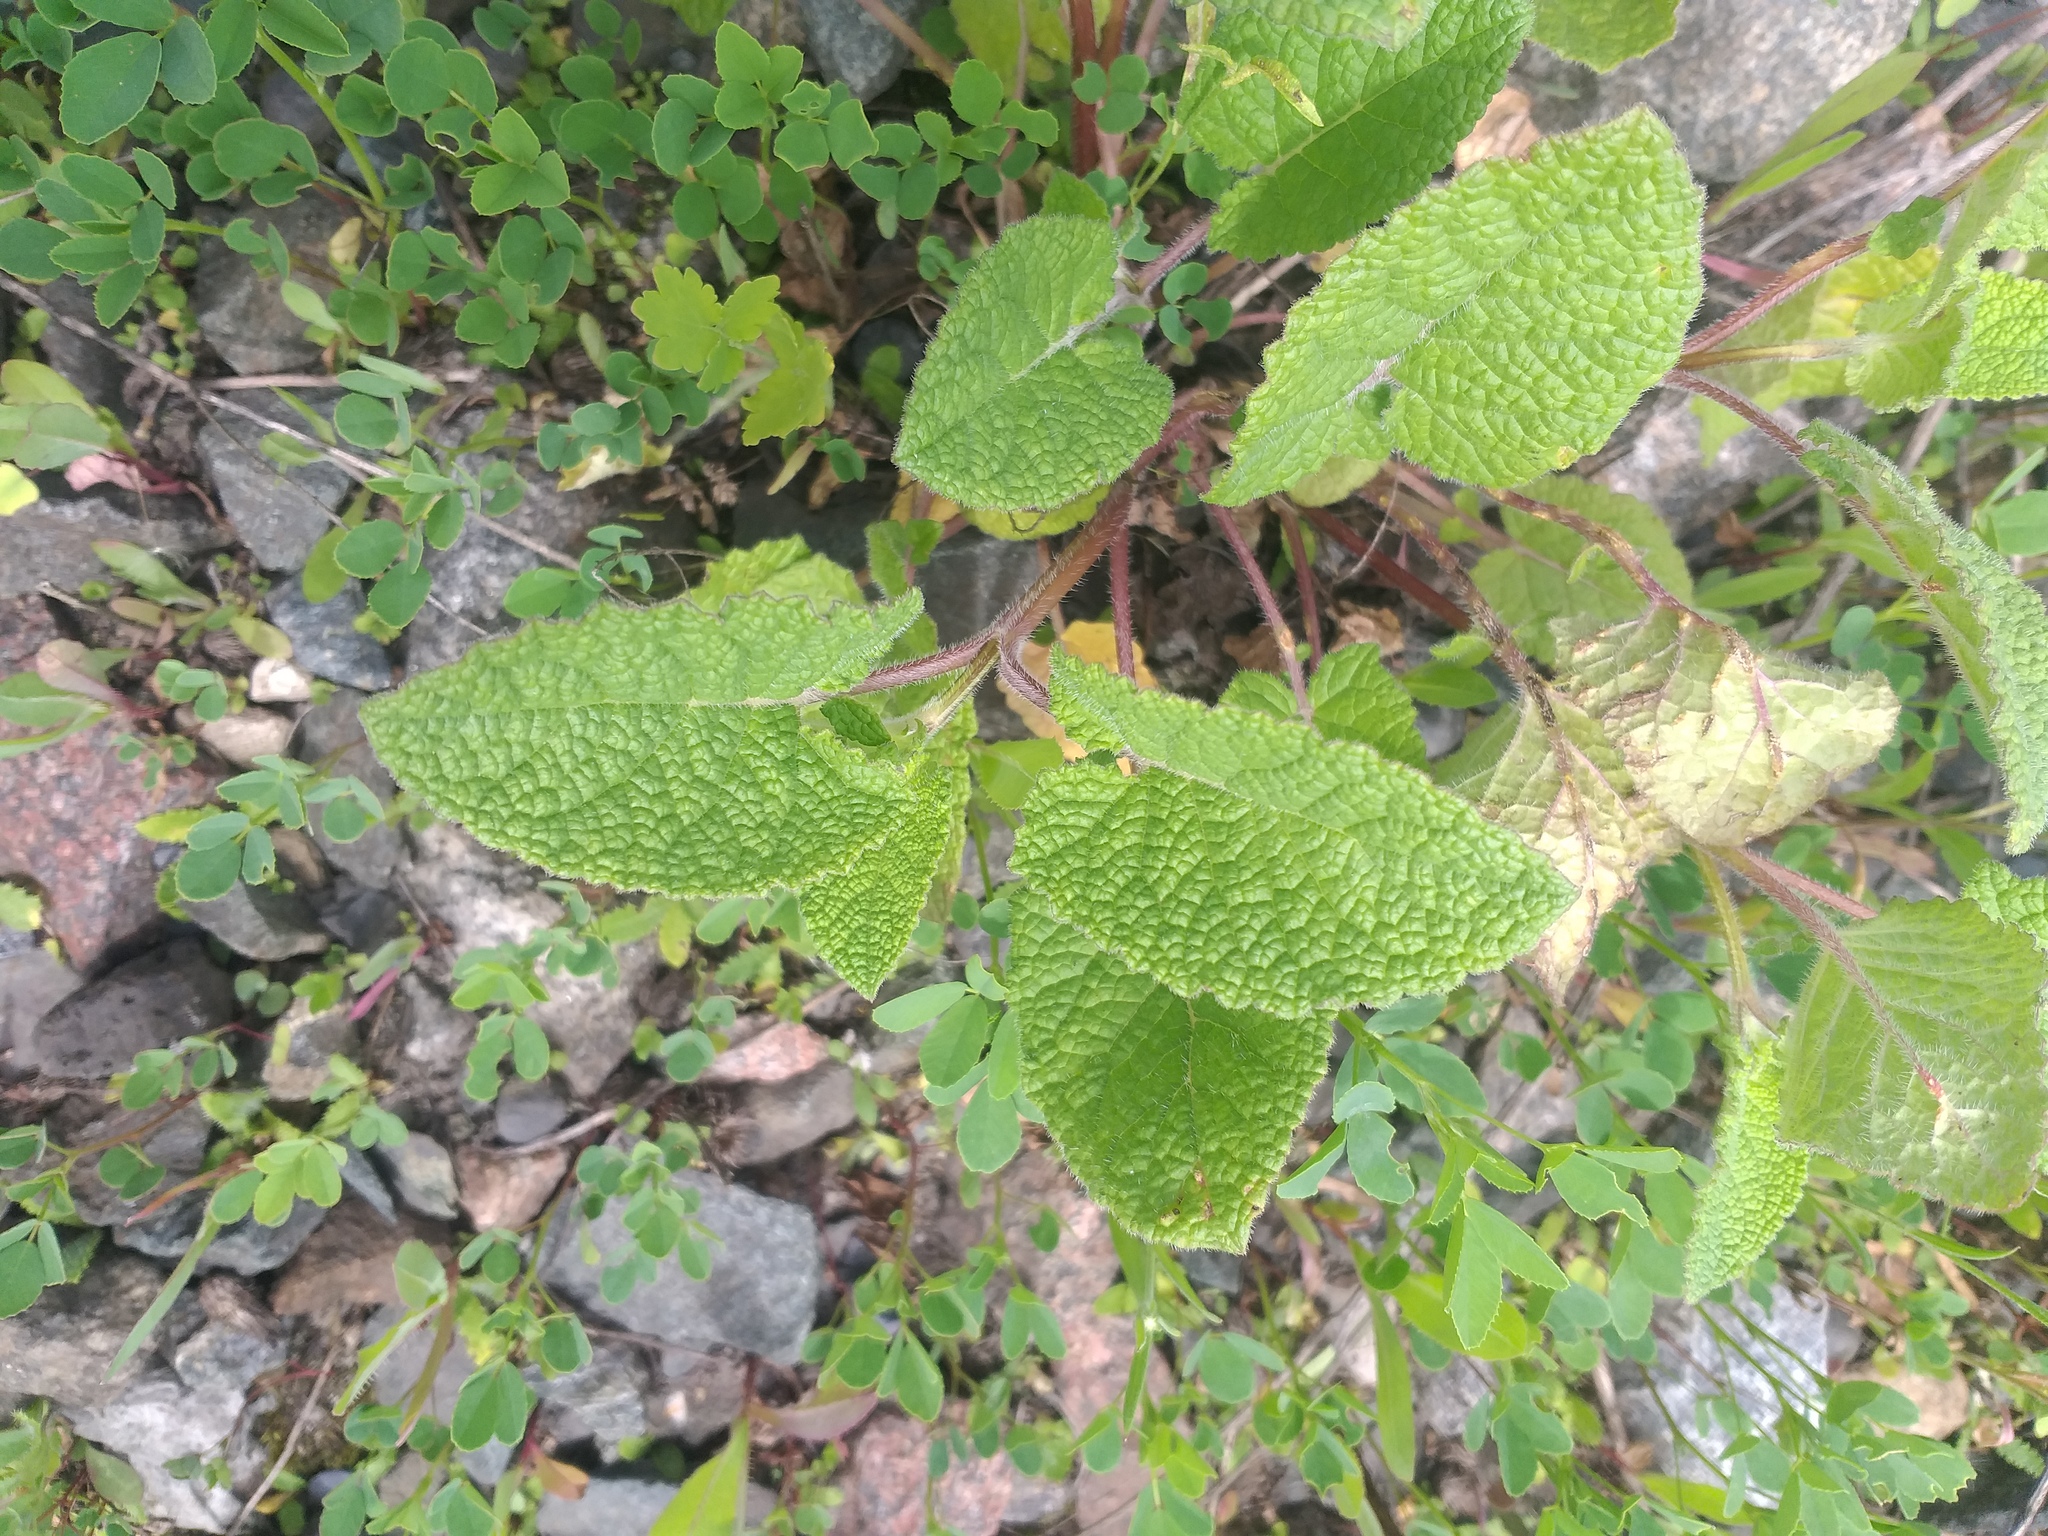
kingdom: Plantae
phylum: Tracheophyta
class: Magnoliopsida
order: Lamiales
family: Lamiaceae
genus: Salvia
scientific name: Salvia verticillata
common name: Whorled clary
